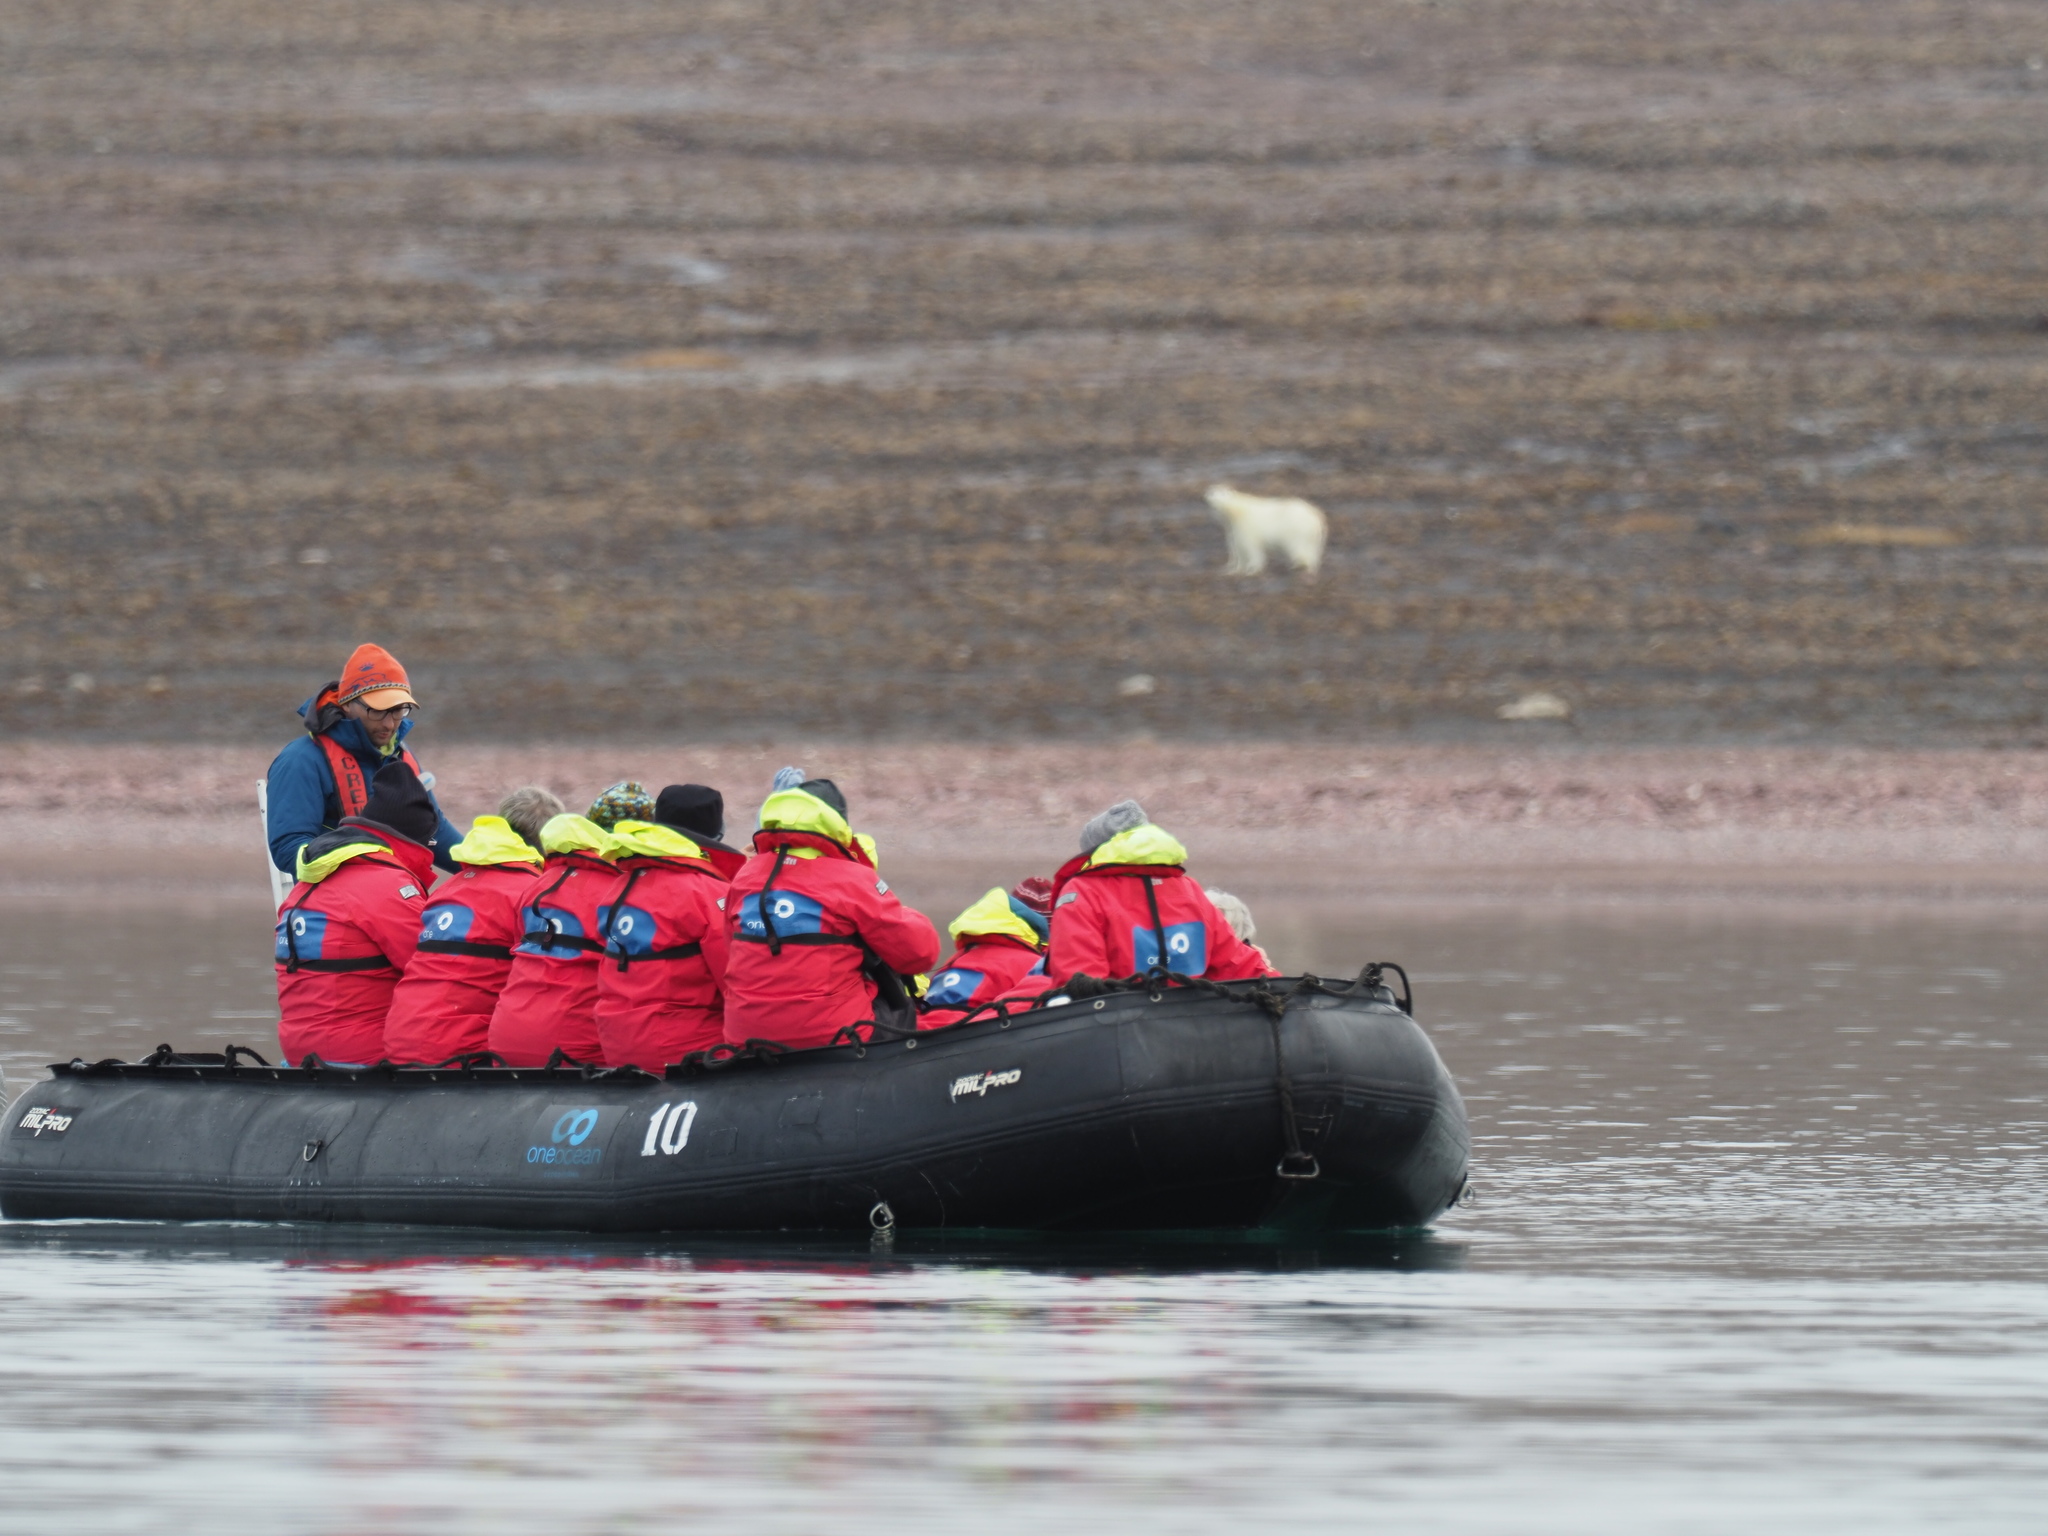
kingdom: Animalia
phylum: Chordata
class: Mammalia
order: Carnivora
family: Ursidae
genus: Ursus
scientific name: Ursus maritimus
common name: Polar bear
